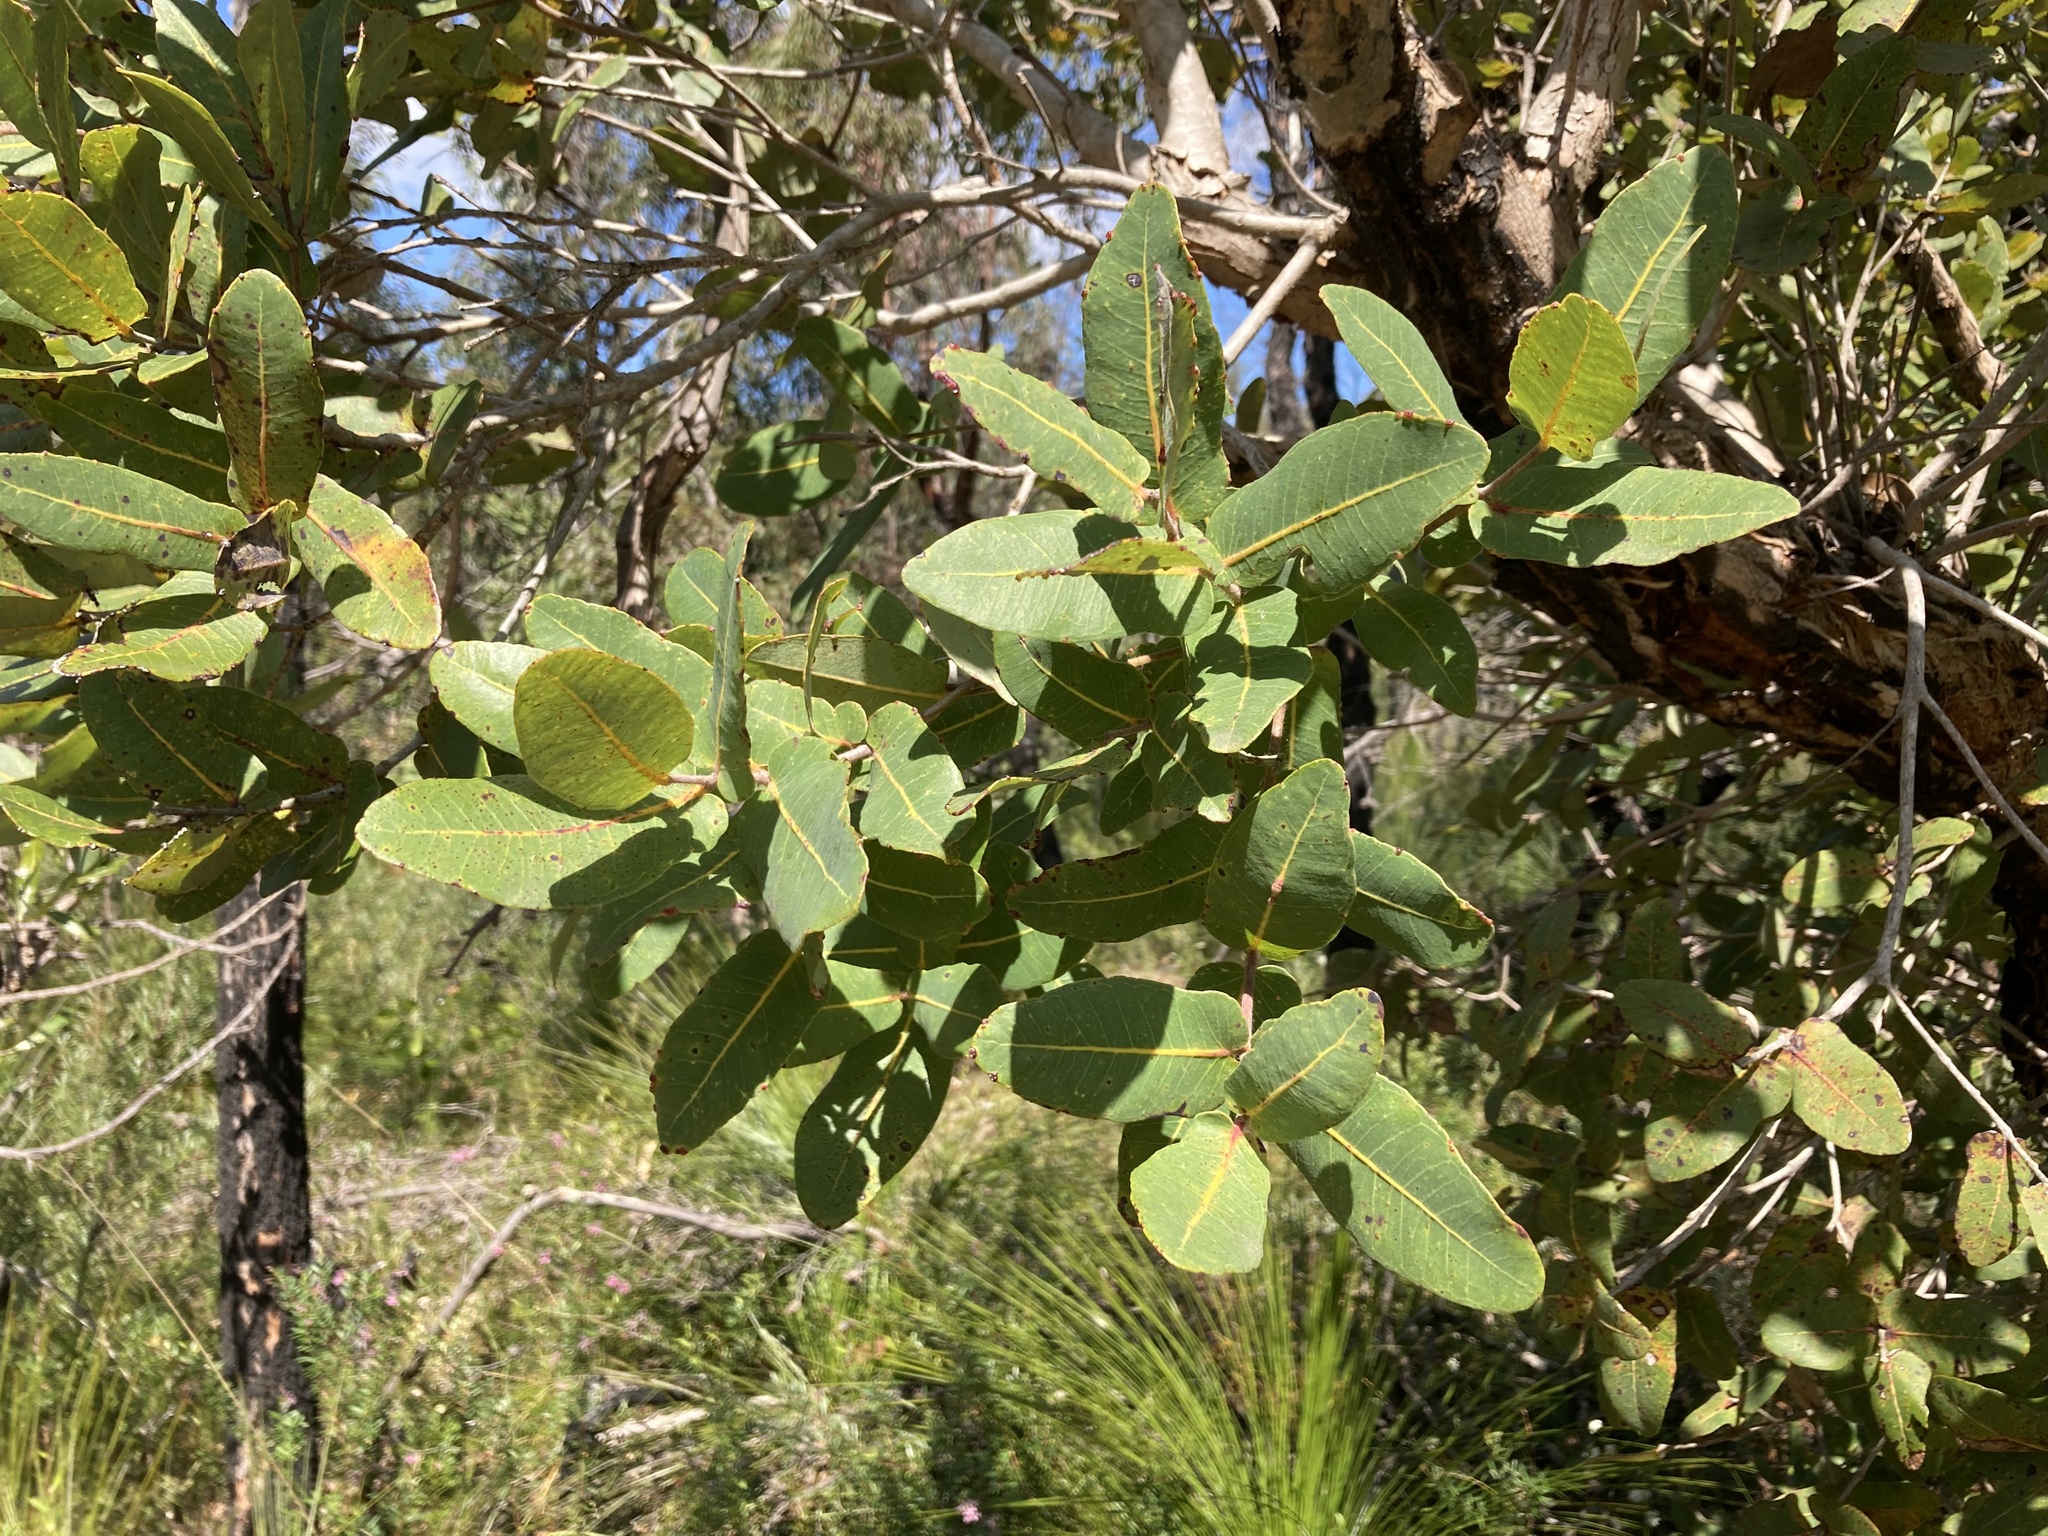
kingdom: Plantae
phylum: Tracheophyta
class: Magnoliopsida
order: Myrtales
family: Myrtaceae
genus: Angophora
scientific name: Angophora hispida
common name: Dwarf-apple
